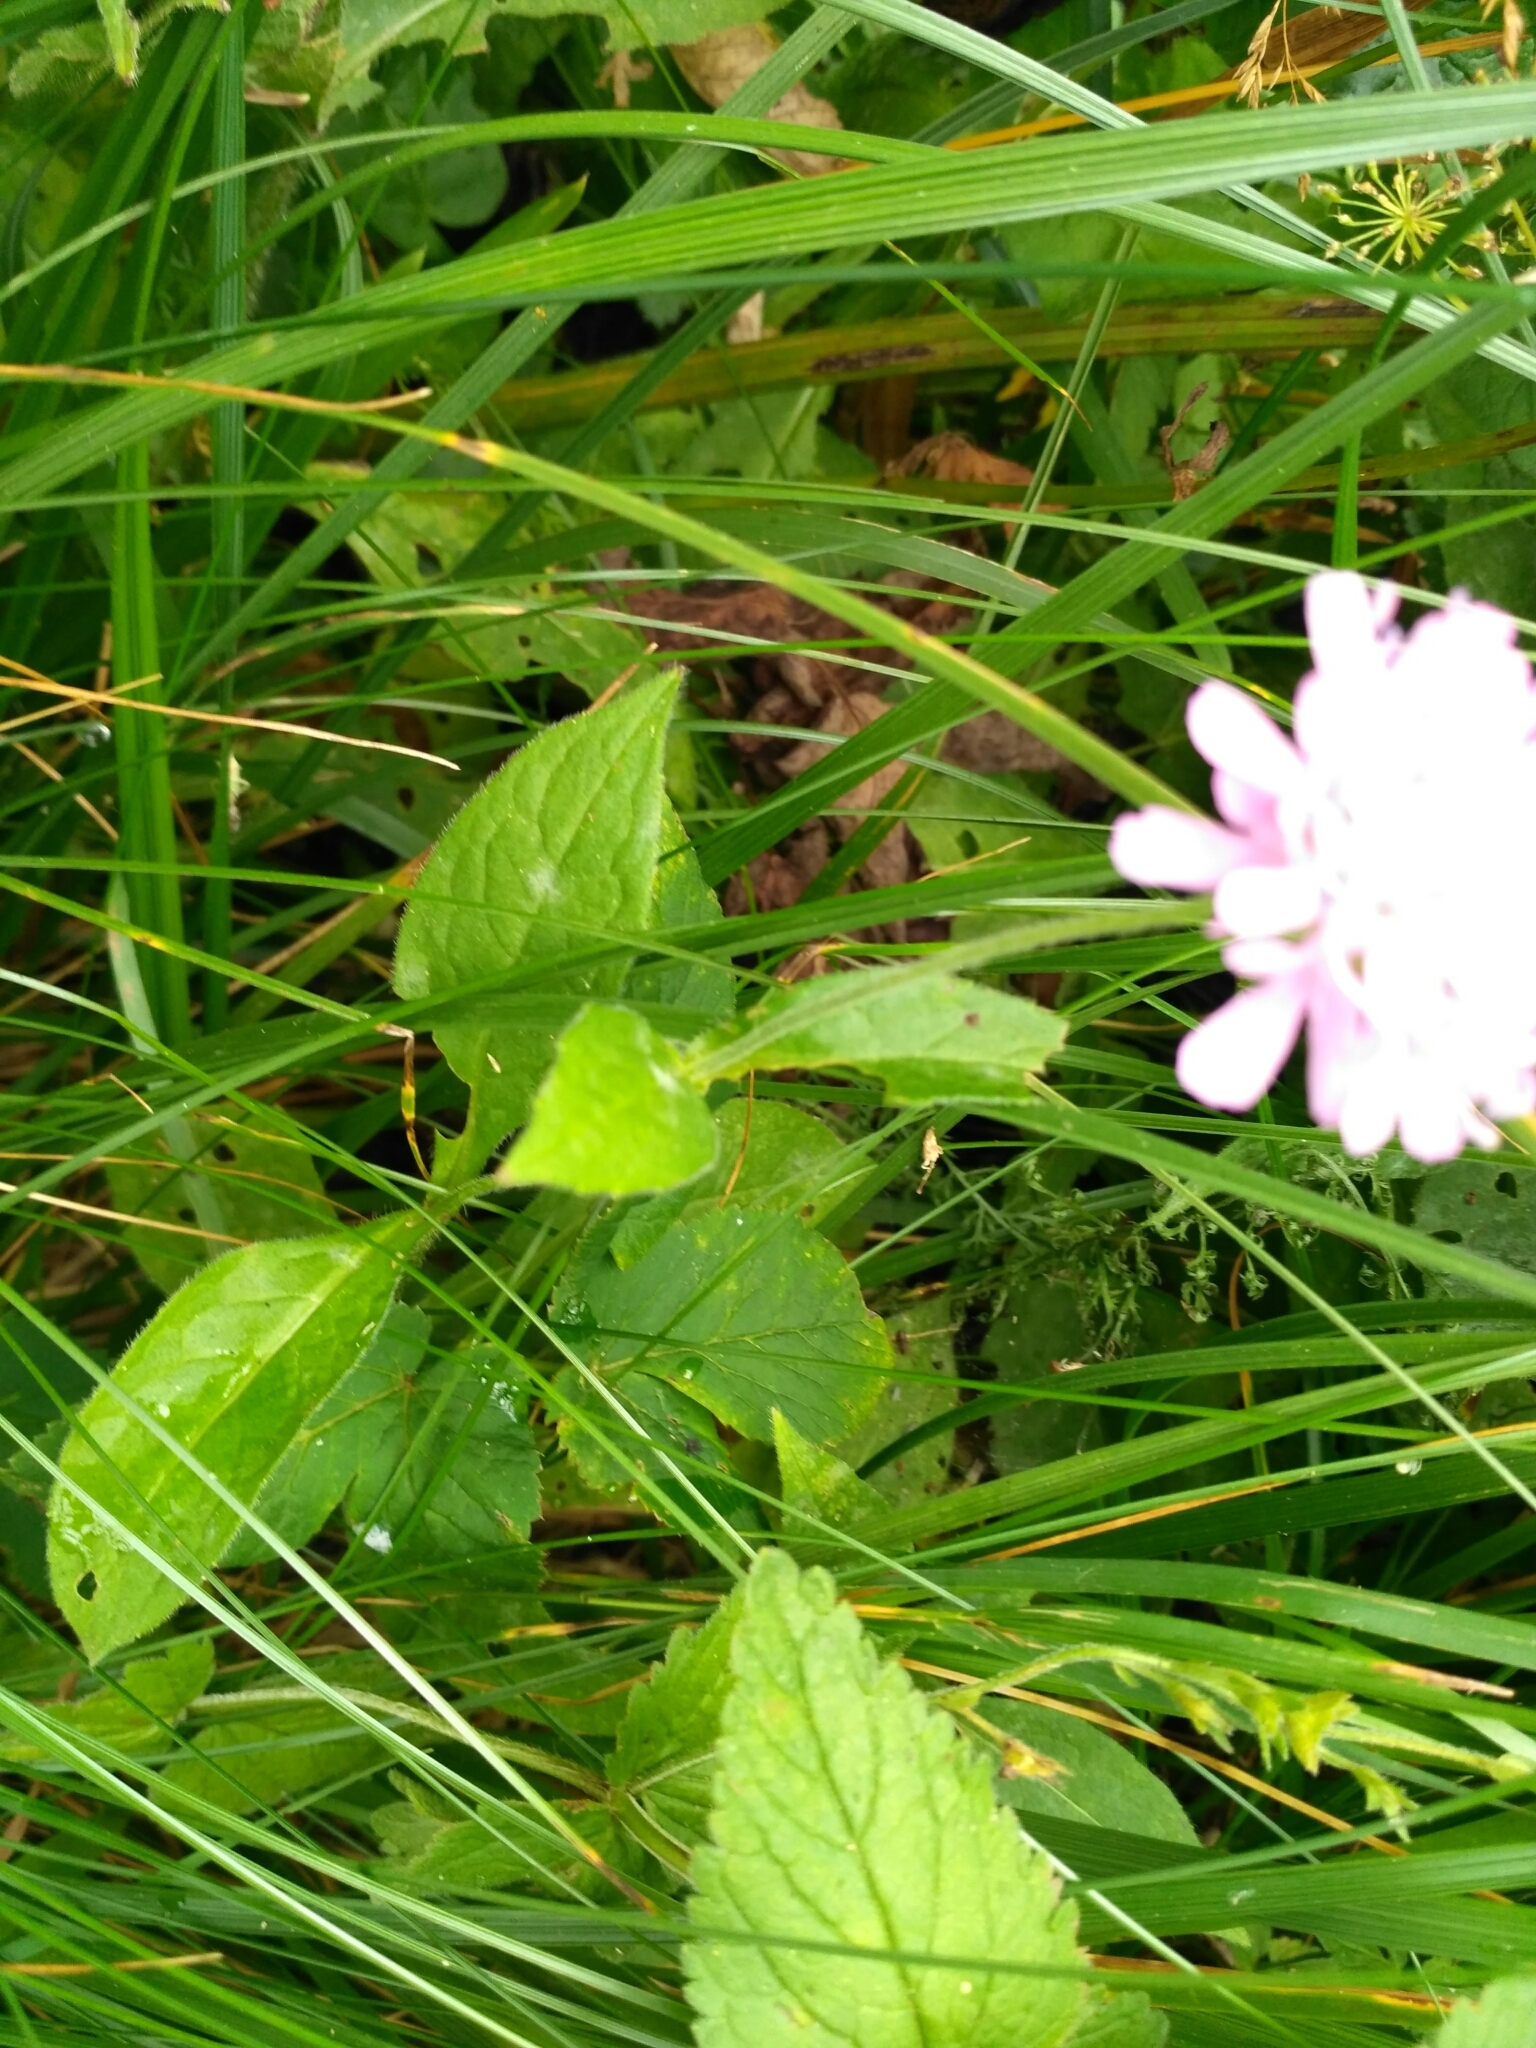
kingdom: Plantae
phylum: Tracheophyta
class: Magnoliopsida
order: Dipsacales
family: Caprifoliaceae
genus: Knautia
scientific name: Knautia dipsacifolia
